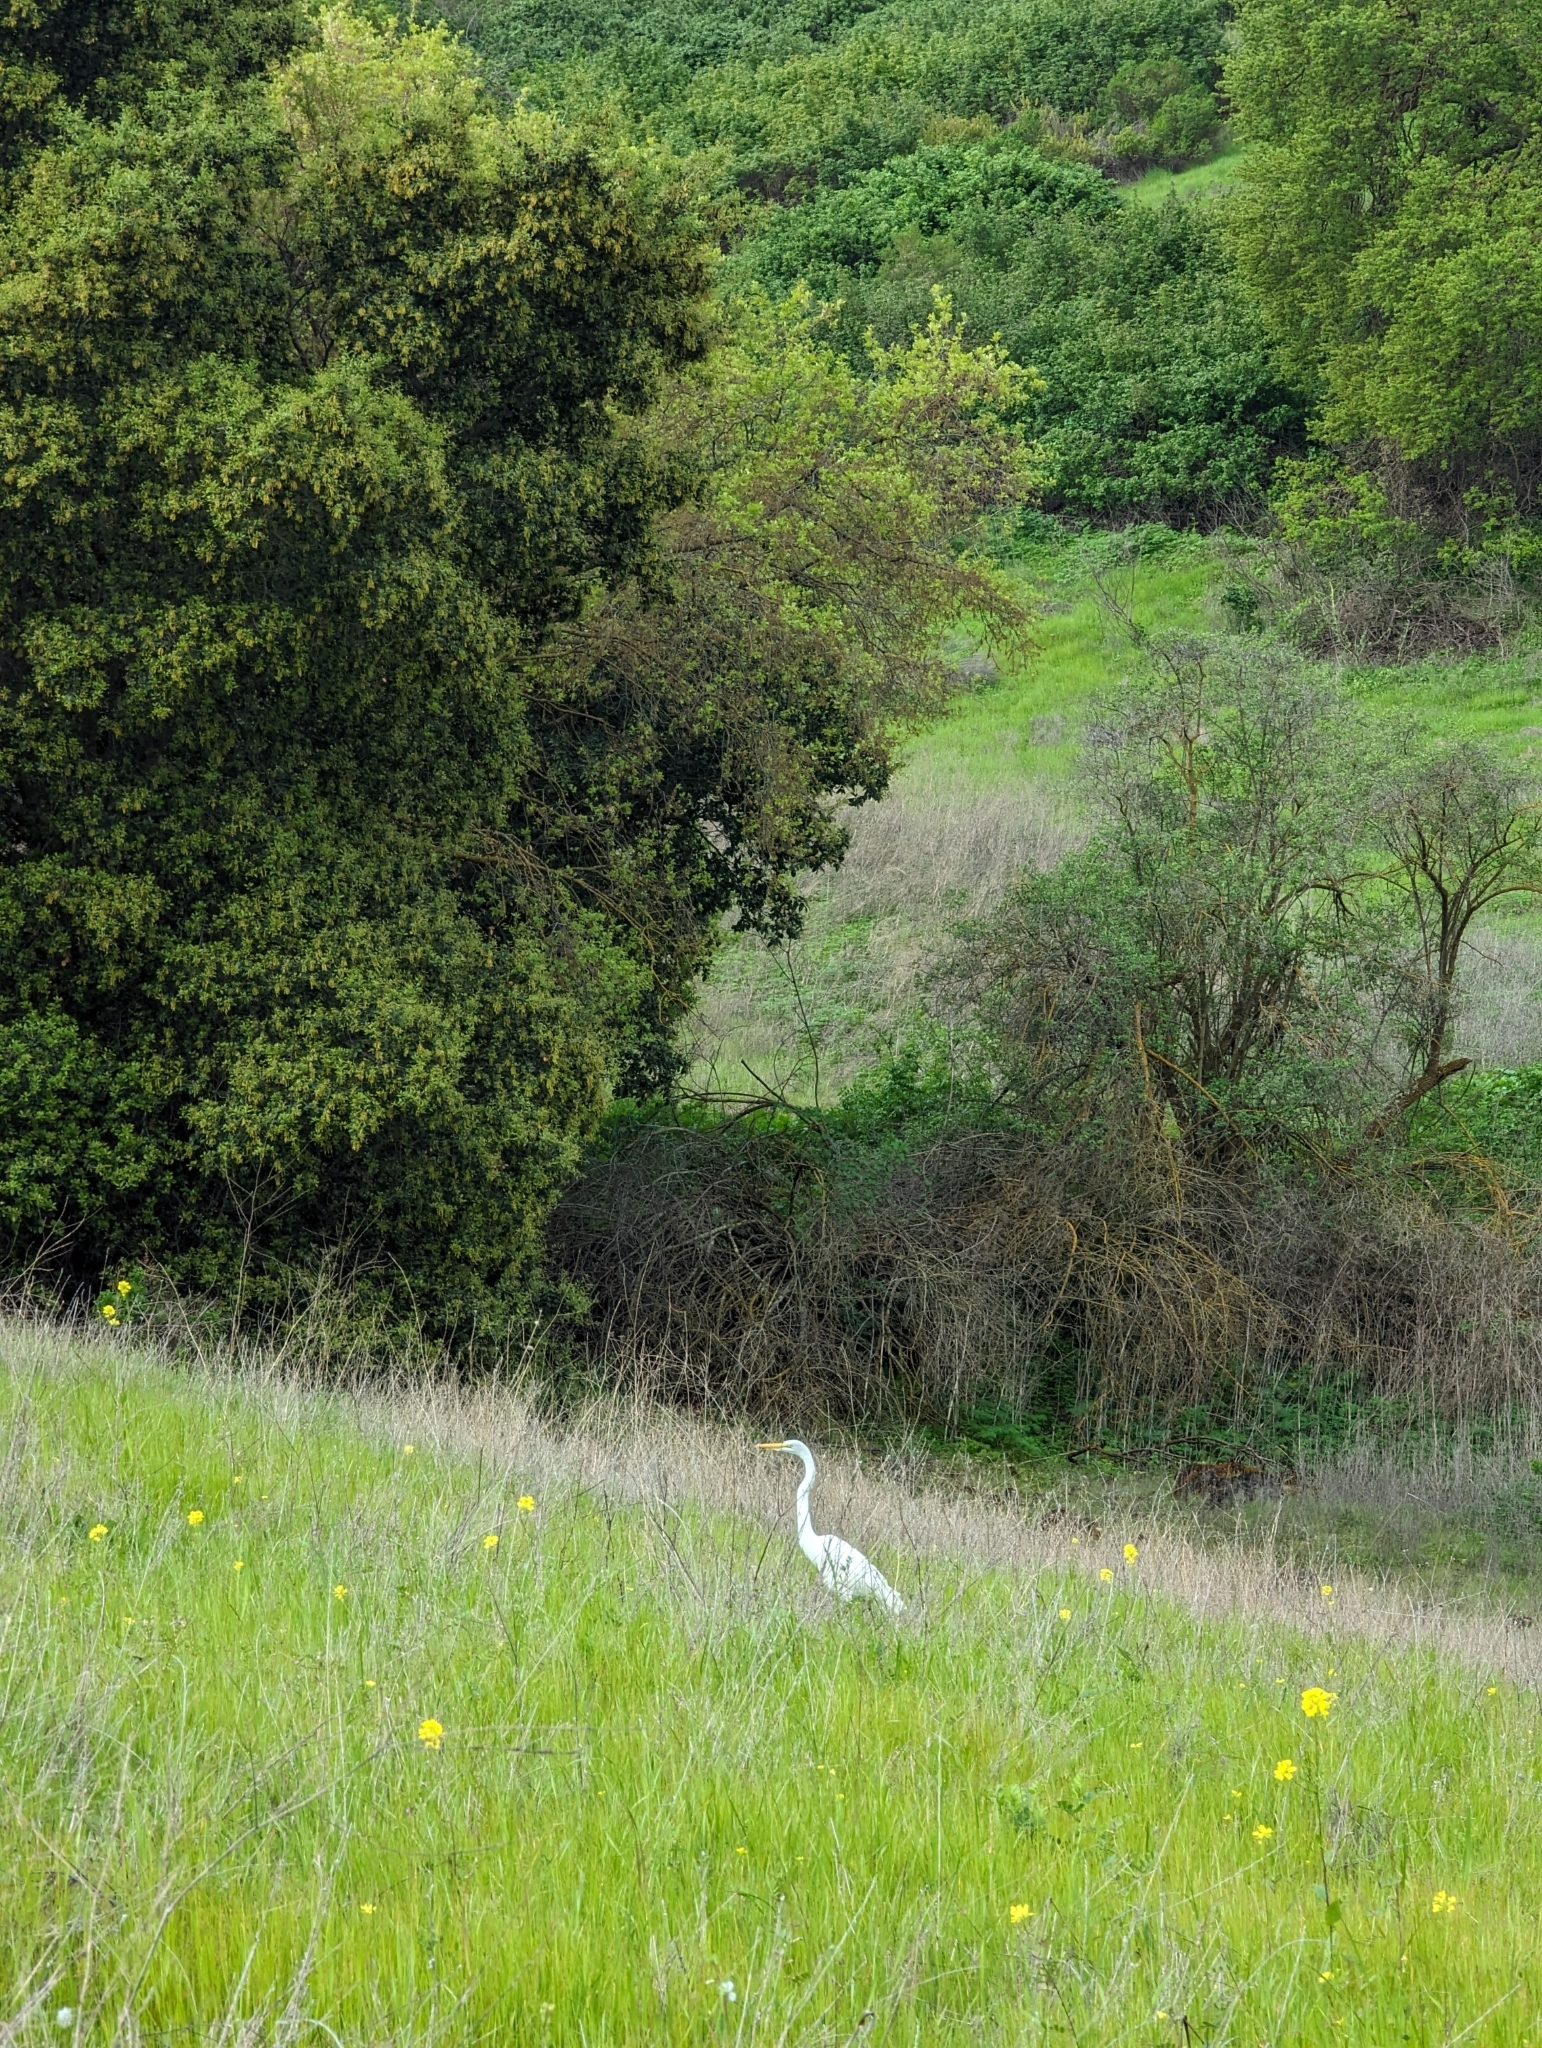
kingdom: Animalia
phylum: Chordata
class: Aves
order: Pelecaniformes
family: Ardeidae
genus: Ardea
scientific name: Ardea alba
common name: Great egret
